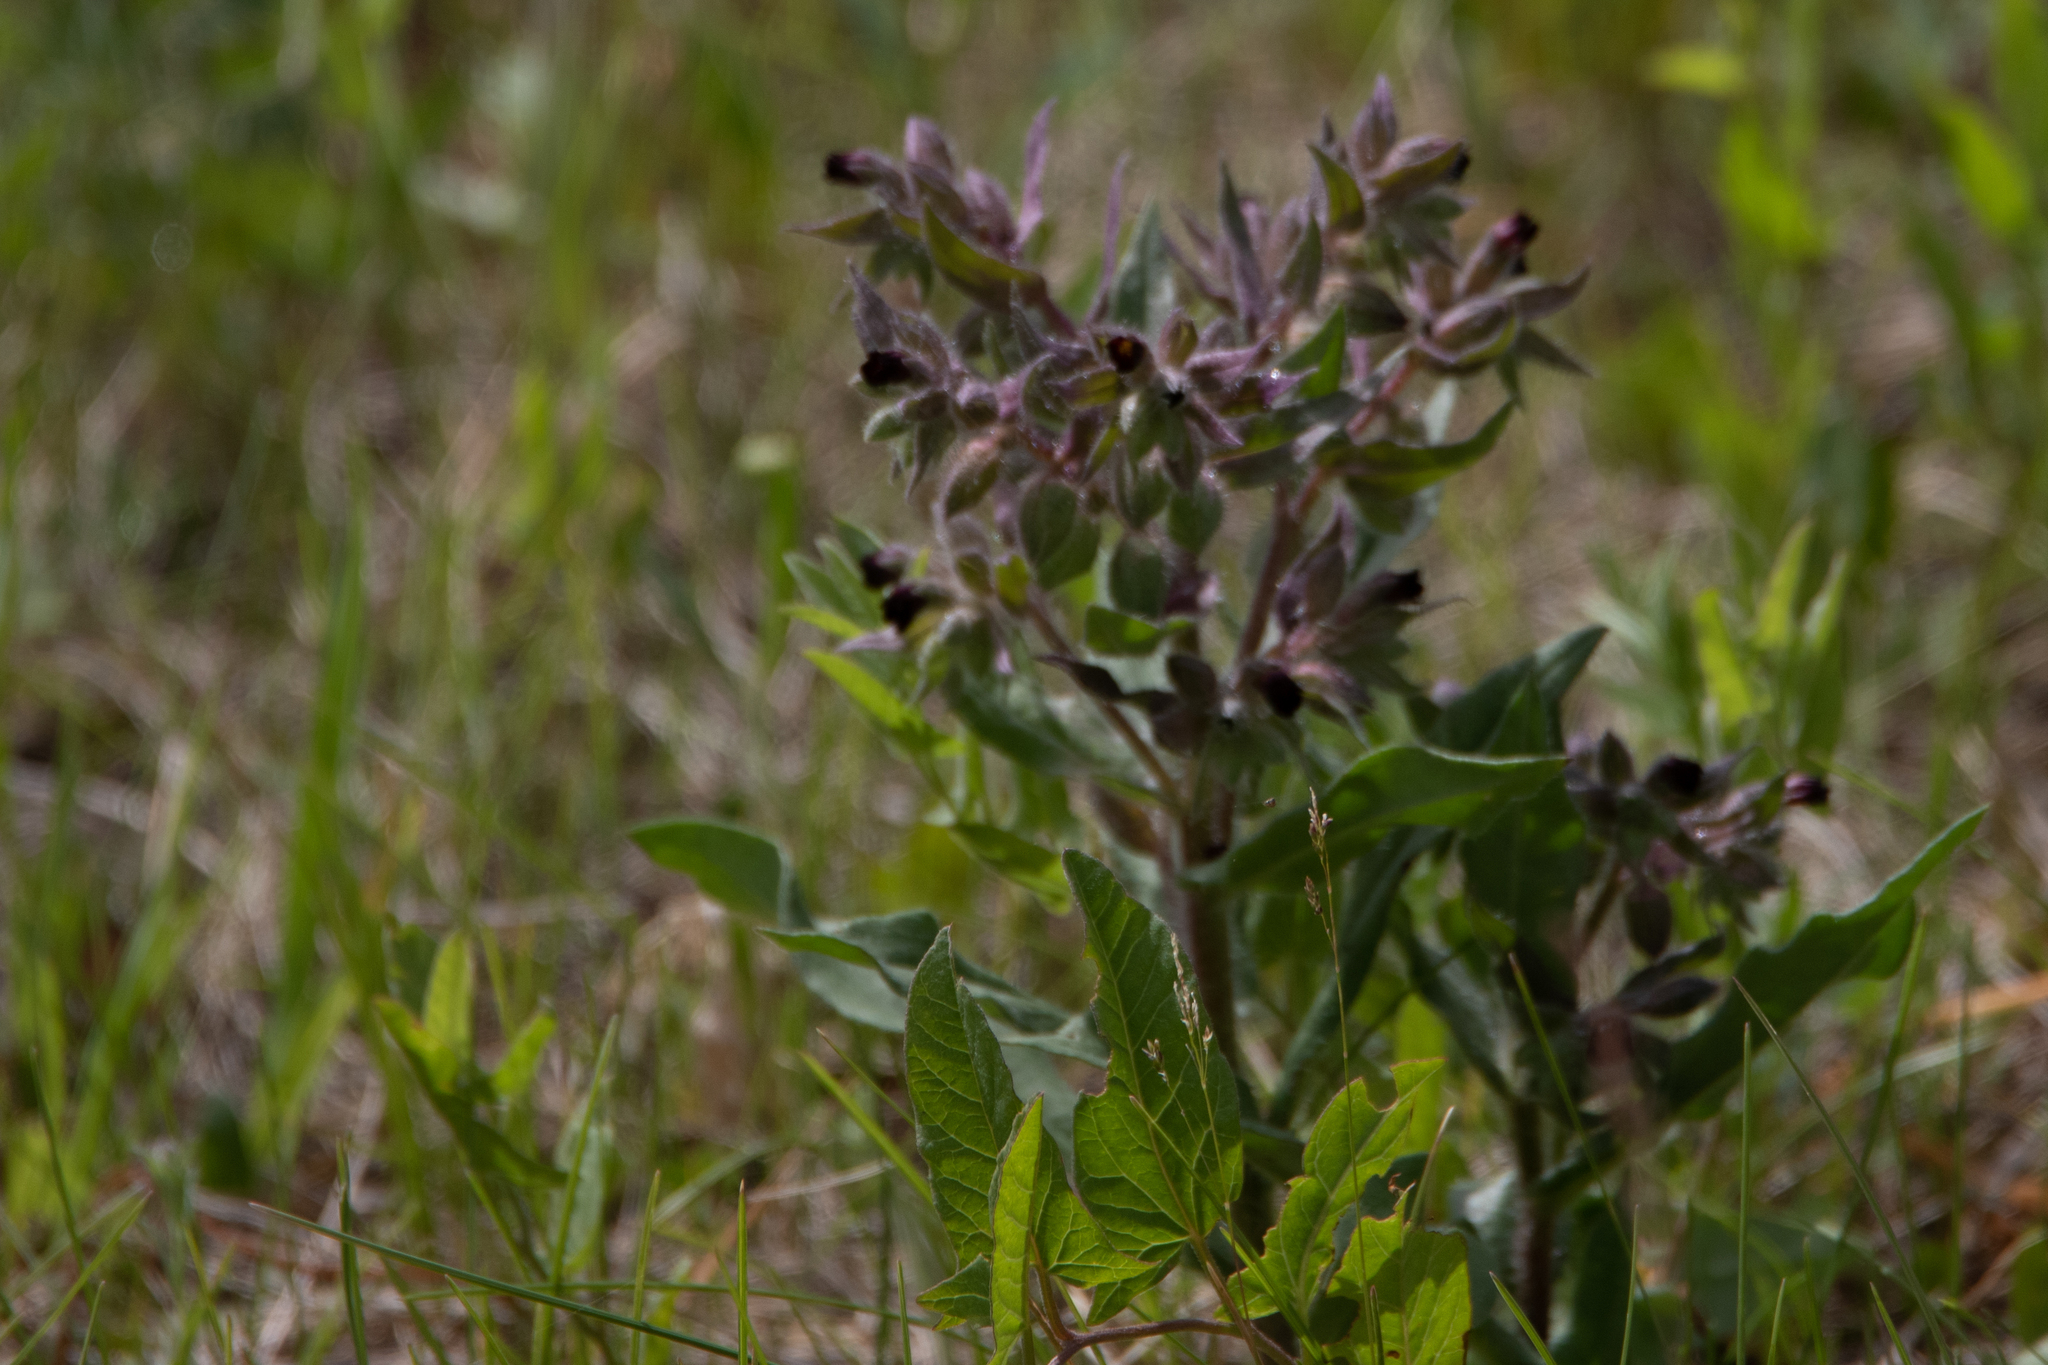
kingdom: Plantae
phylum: Tracheophyta
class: Magnoliopsida
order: Boraginales
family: Boraginaceae
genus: Nonea
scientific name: Nonea pulla
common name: Brown nonea
